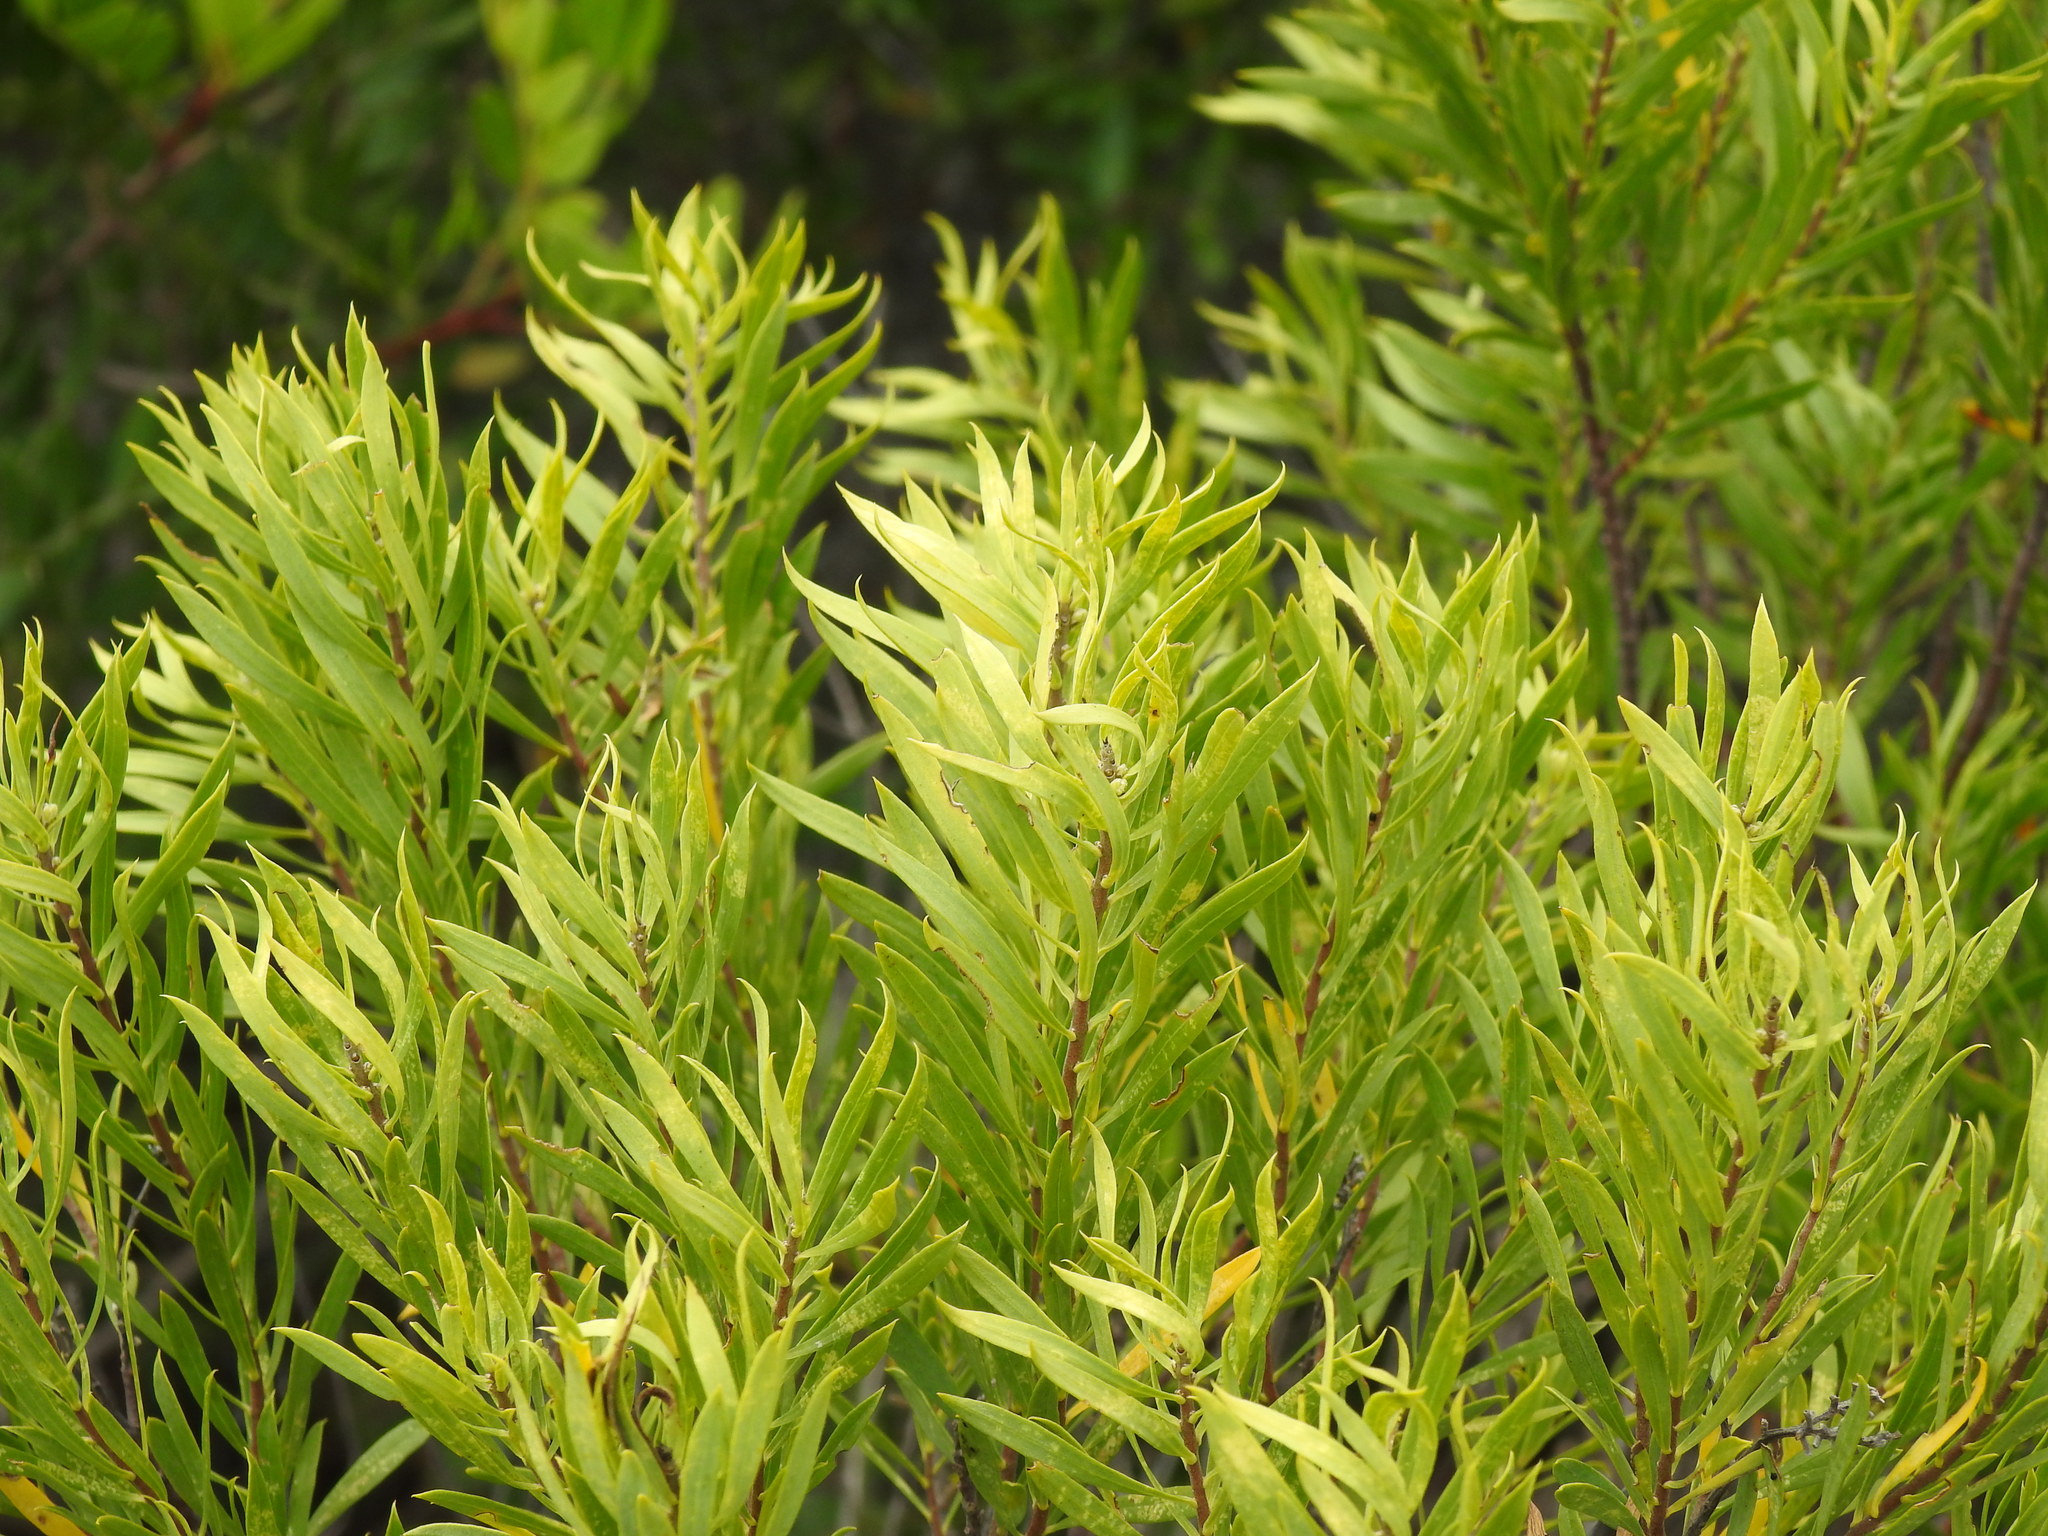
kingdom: Plantae
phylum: Tracheophyta
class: Magnoliopsida
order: Malvales
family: Thymelaeaceae
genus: Daphne
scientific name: Daphne gnidium
